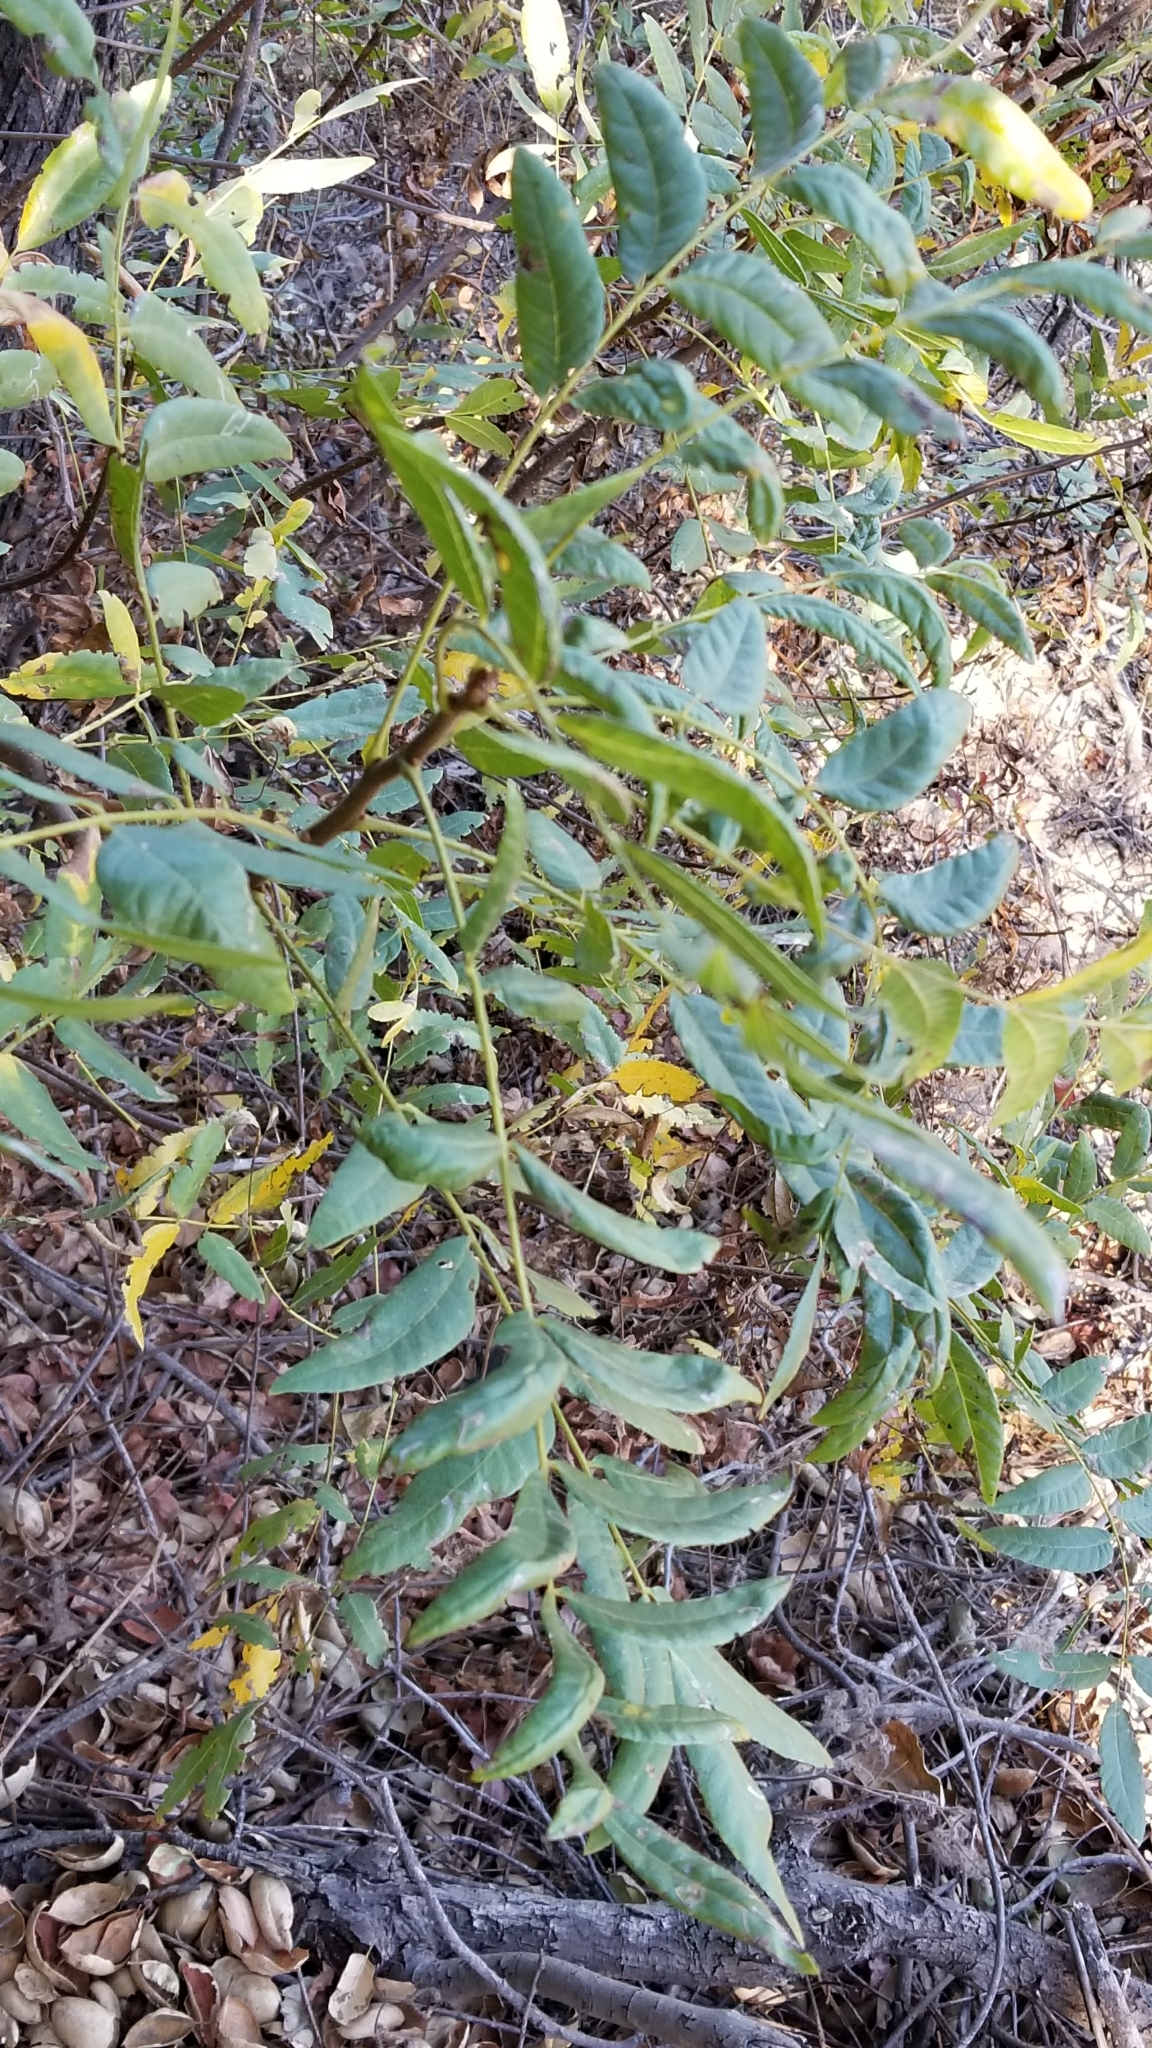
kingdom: Plantae
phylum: Tracheophyta
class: Magnoliopsida
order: Fagales
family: Juglandaceae
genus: Juglans
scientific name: Juglans californica
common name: Southern california black walnut
